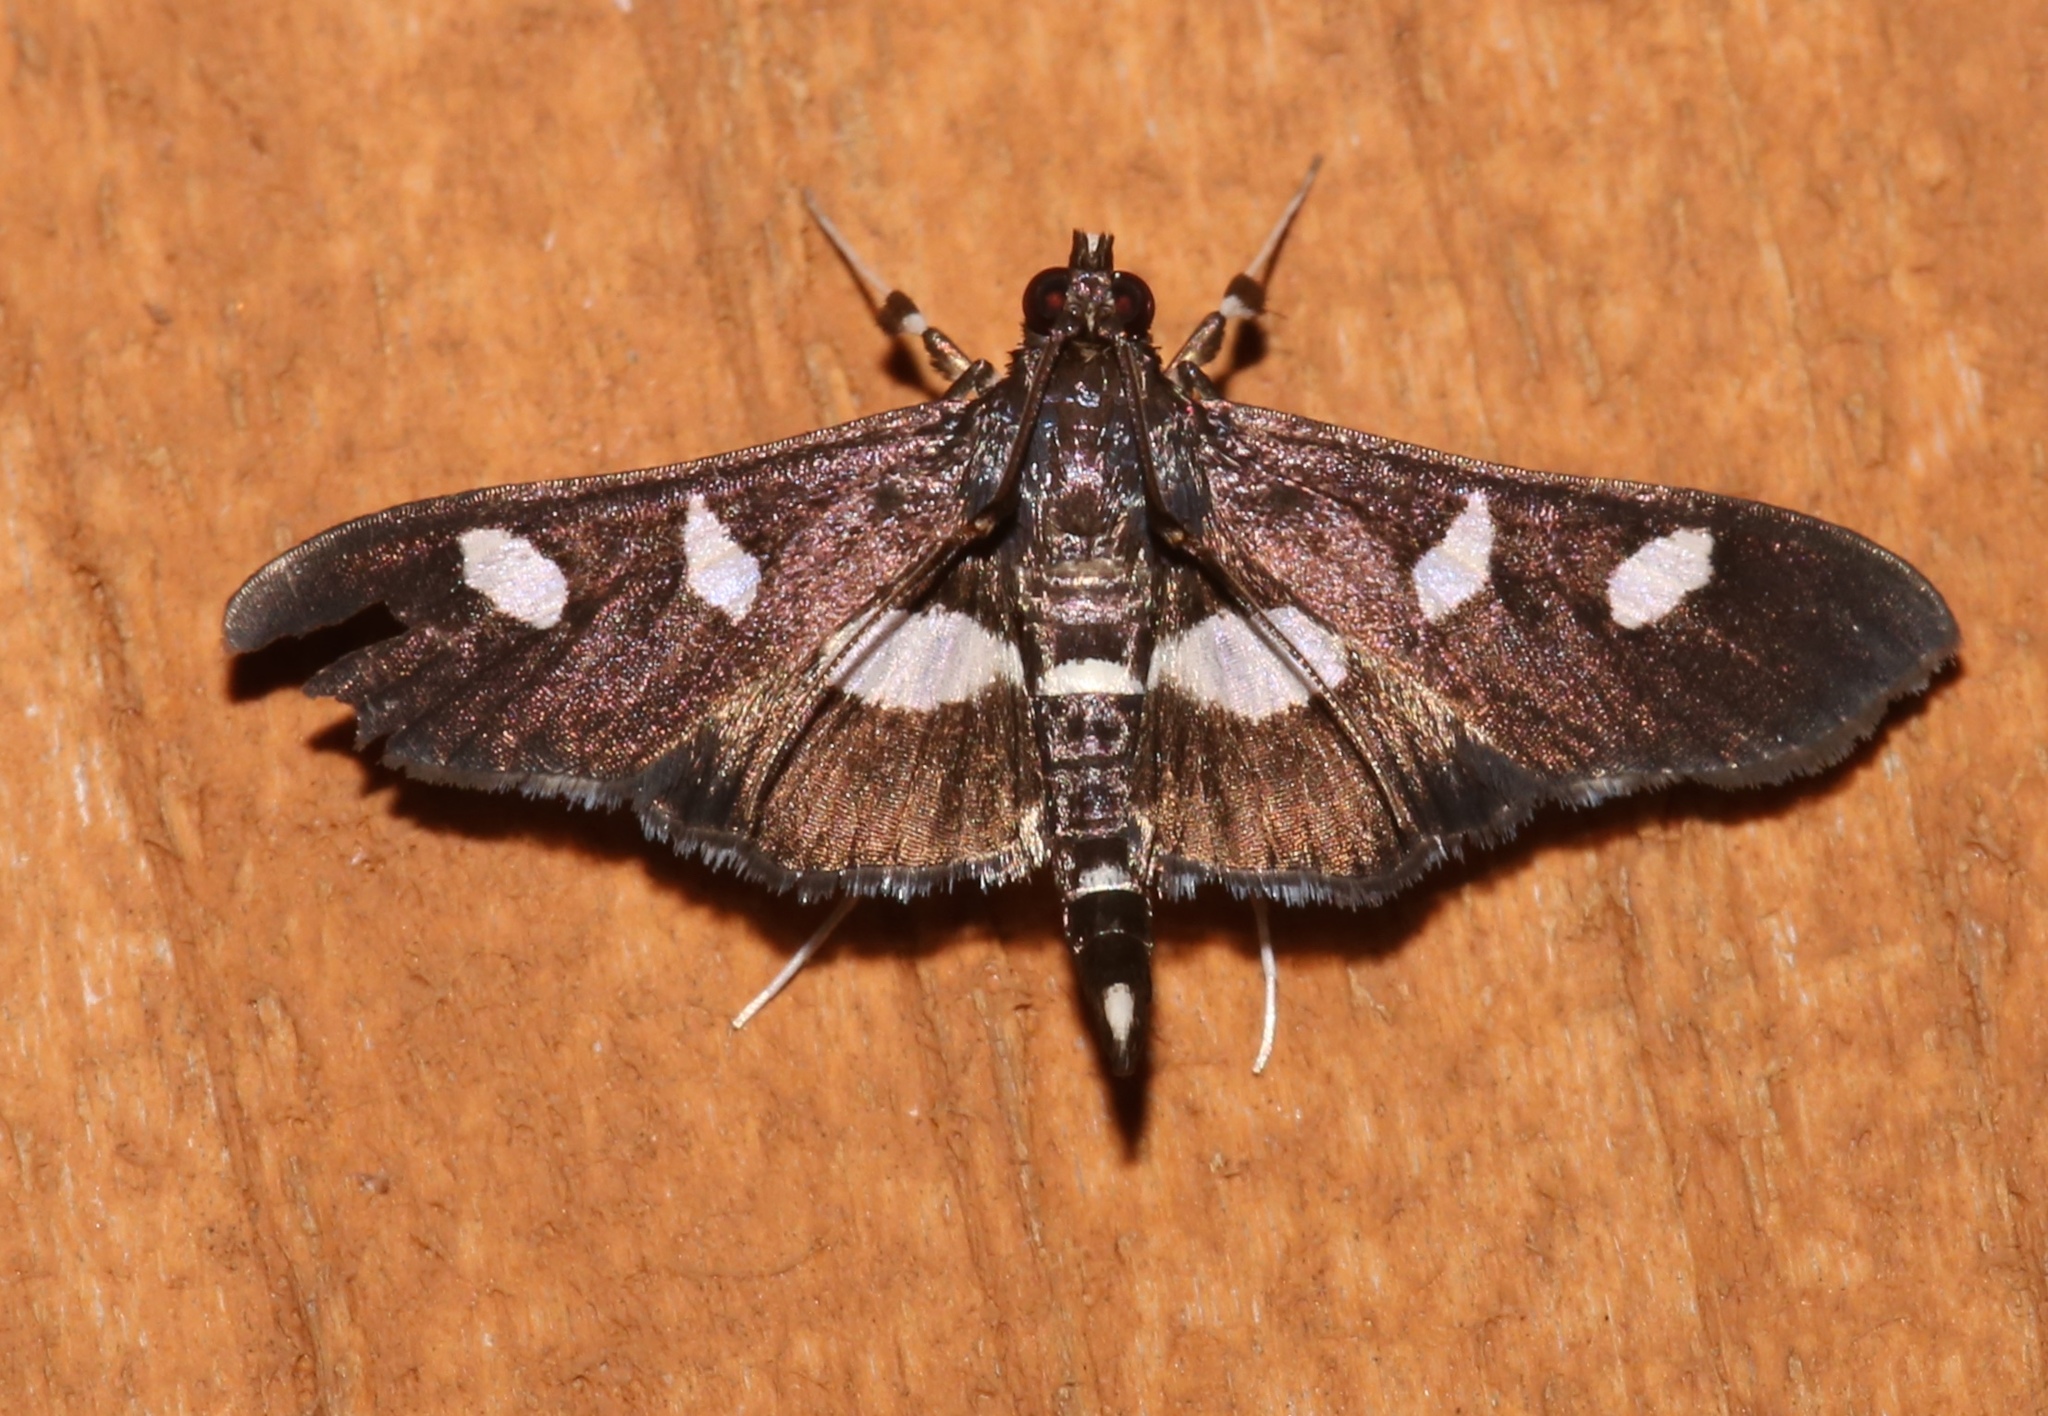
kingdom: Animalia
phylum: Arthropoda
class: Insecta
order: Lepidoptera
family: Crambidae
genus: Desmia
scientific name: Desmia
